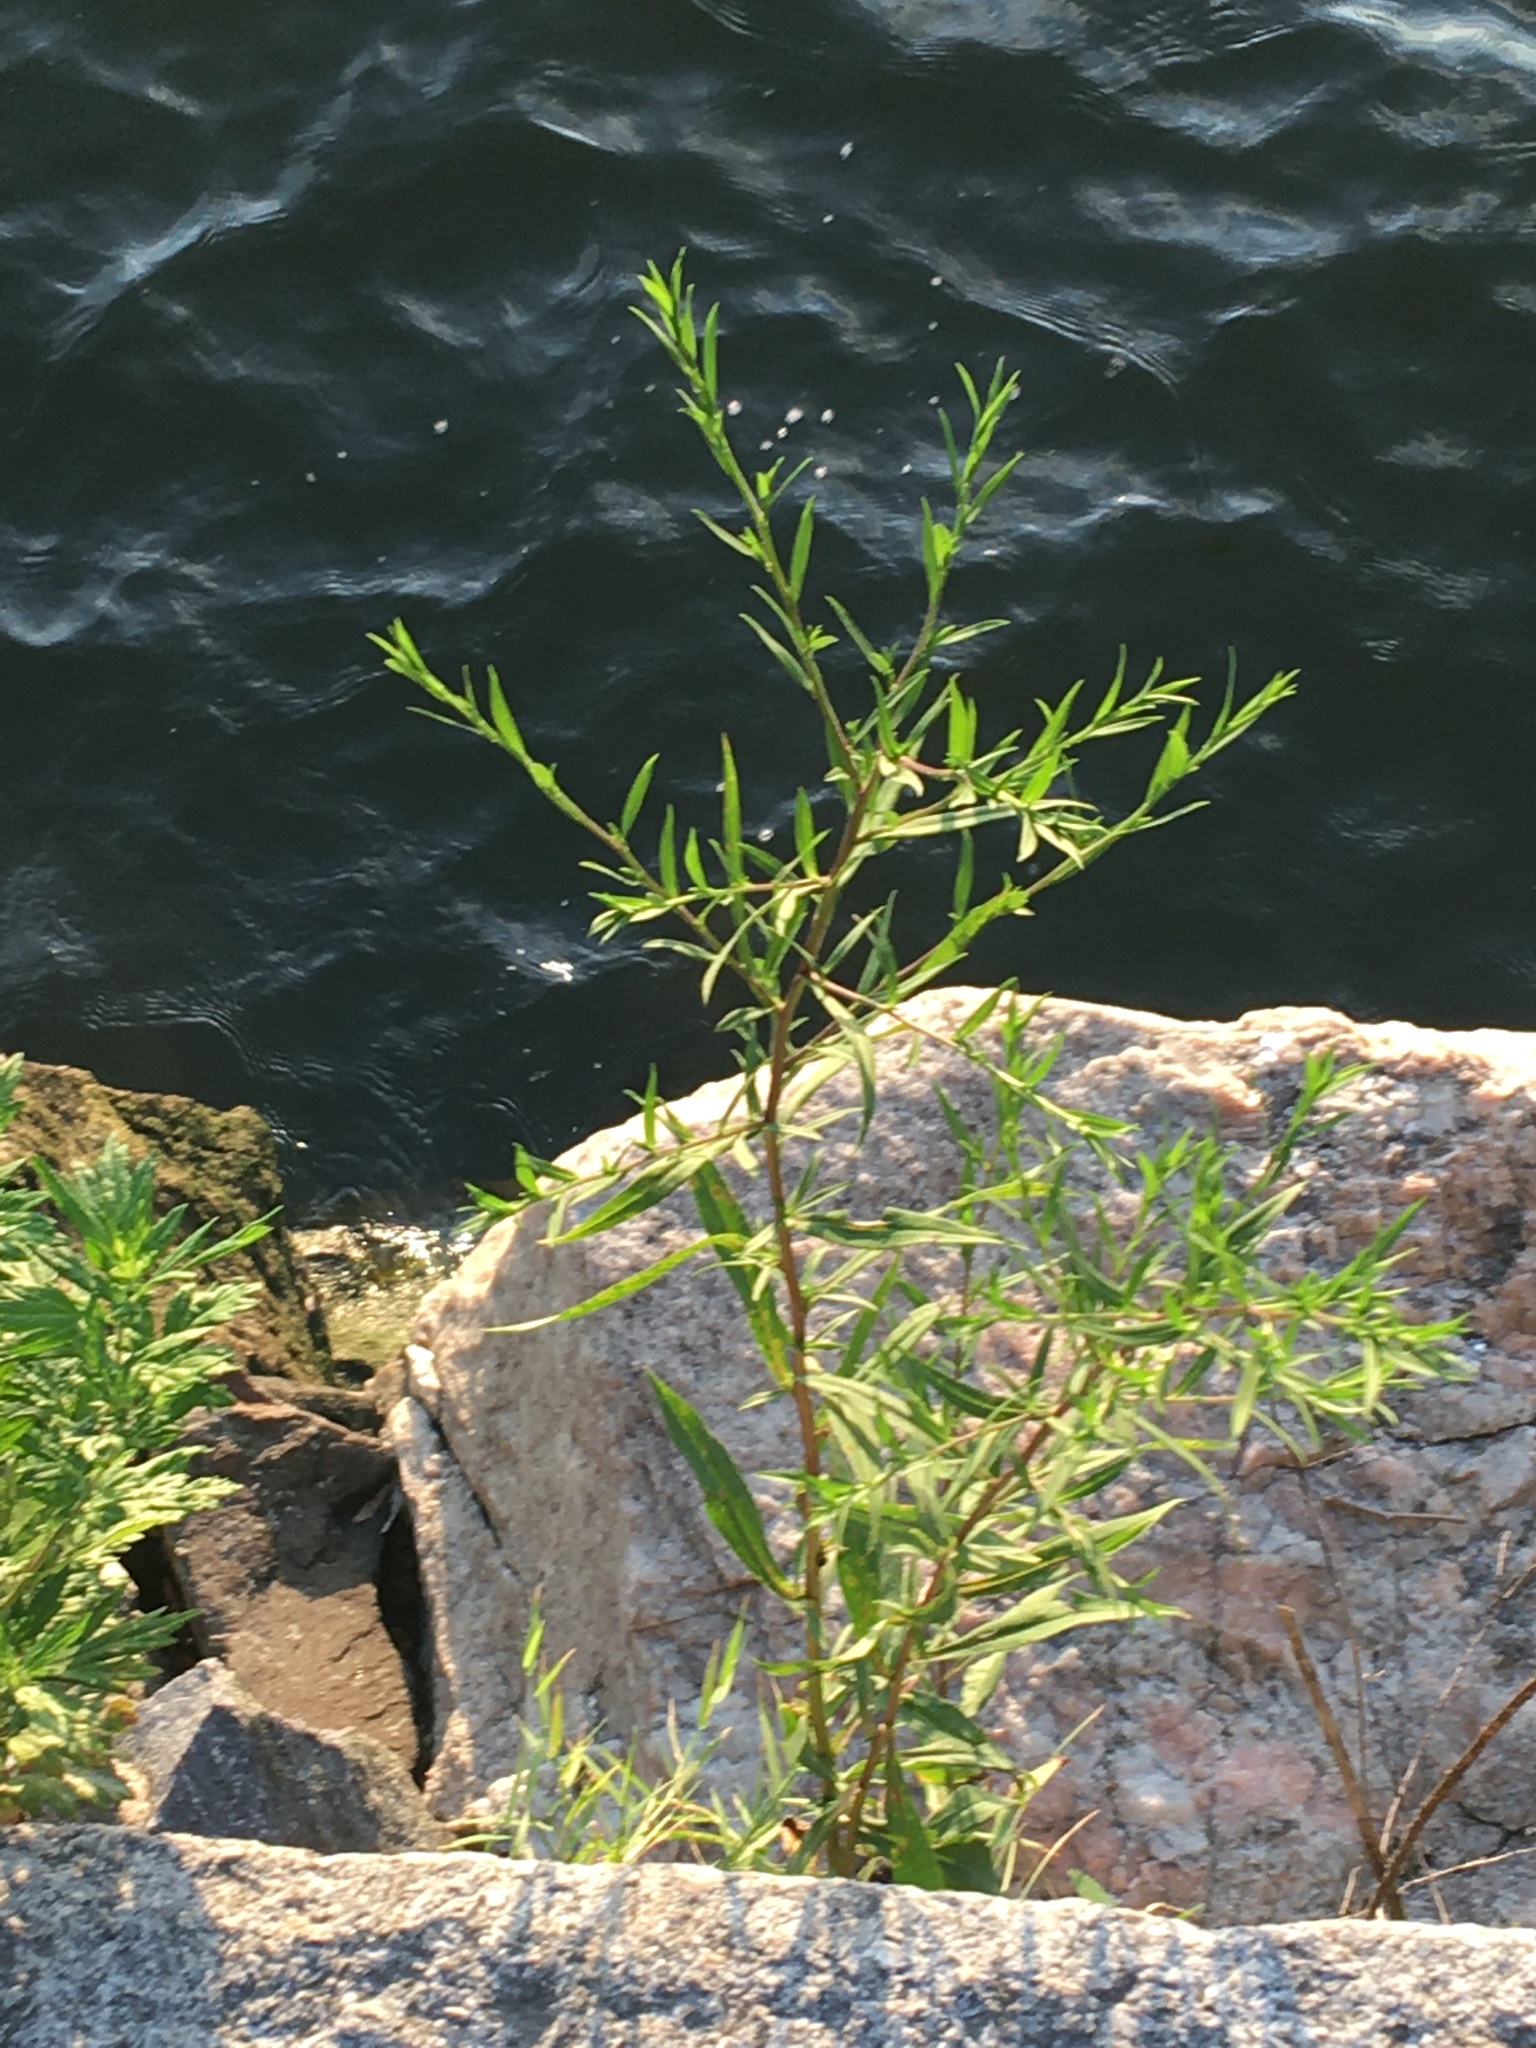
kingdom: Plantae
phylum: Tracheophyta
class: Magnoliopsida
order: Asterales
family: Asteraceae
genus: Symphyotrichum
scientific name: Symphyotrichum lanceolatum
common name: Panicled aster
